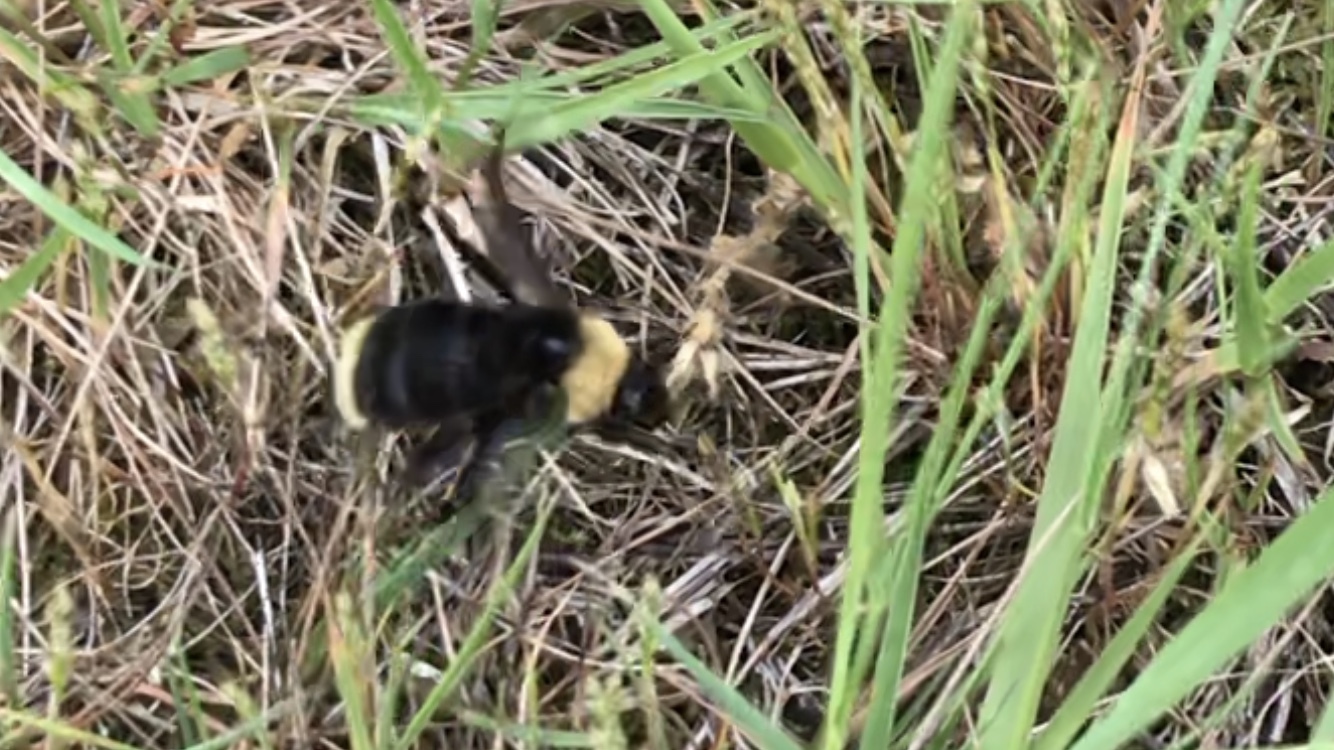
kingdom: Animalia
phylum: Arthropoda
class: Insecta
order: Hymenoptera
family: Apidae
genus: Bombus
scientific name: Bombus californicus
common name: California bumble bee
